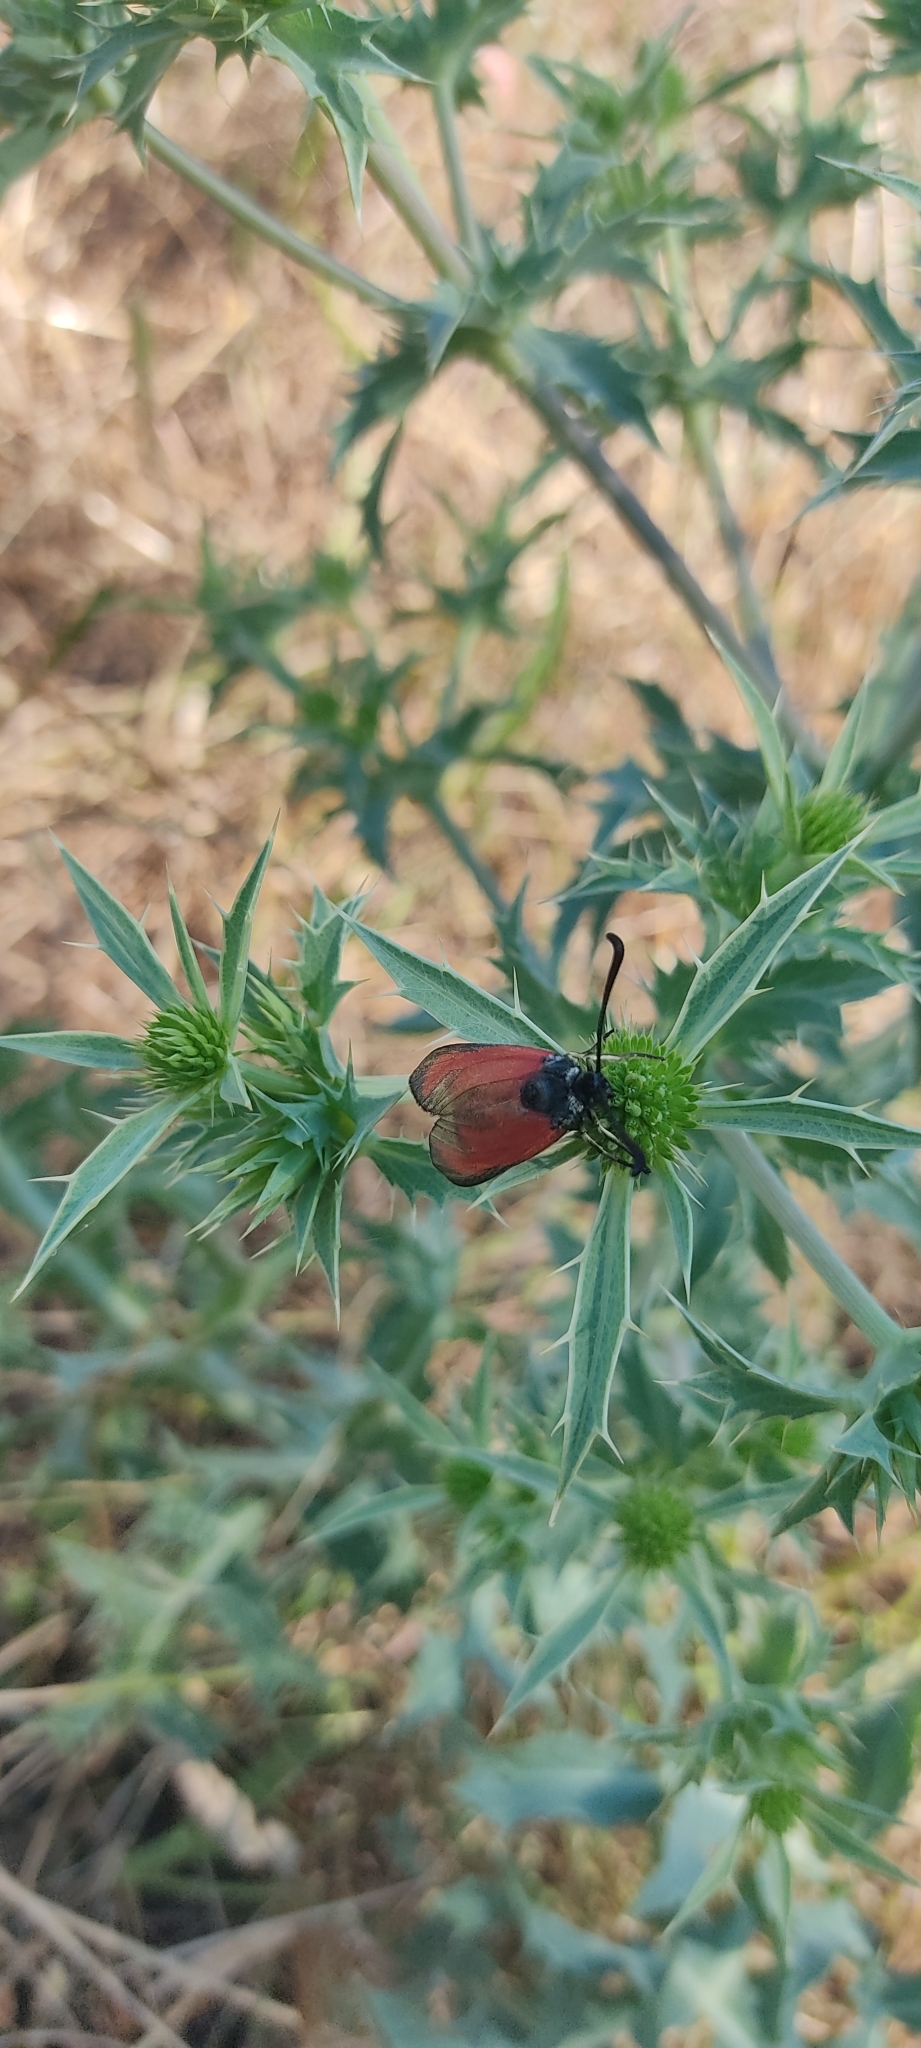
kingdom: Animalia
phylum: Arthropoda
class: Insecta
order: Lepidoptera
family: Zygaenidae
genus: Zygaena
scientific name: Zygaena erythrus
